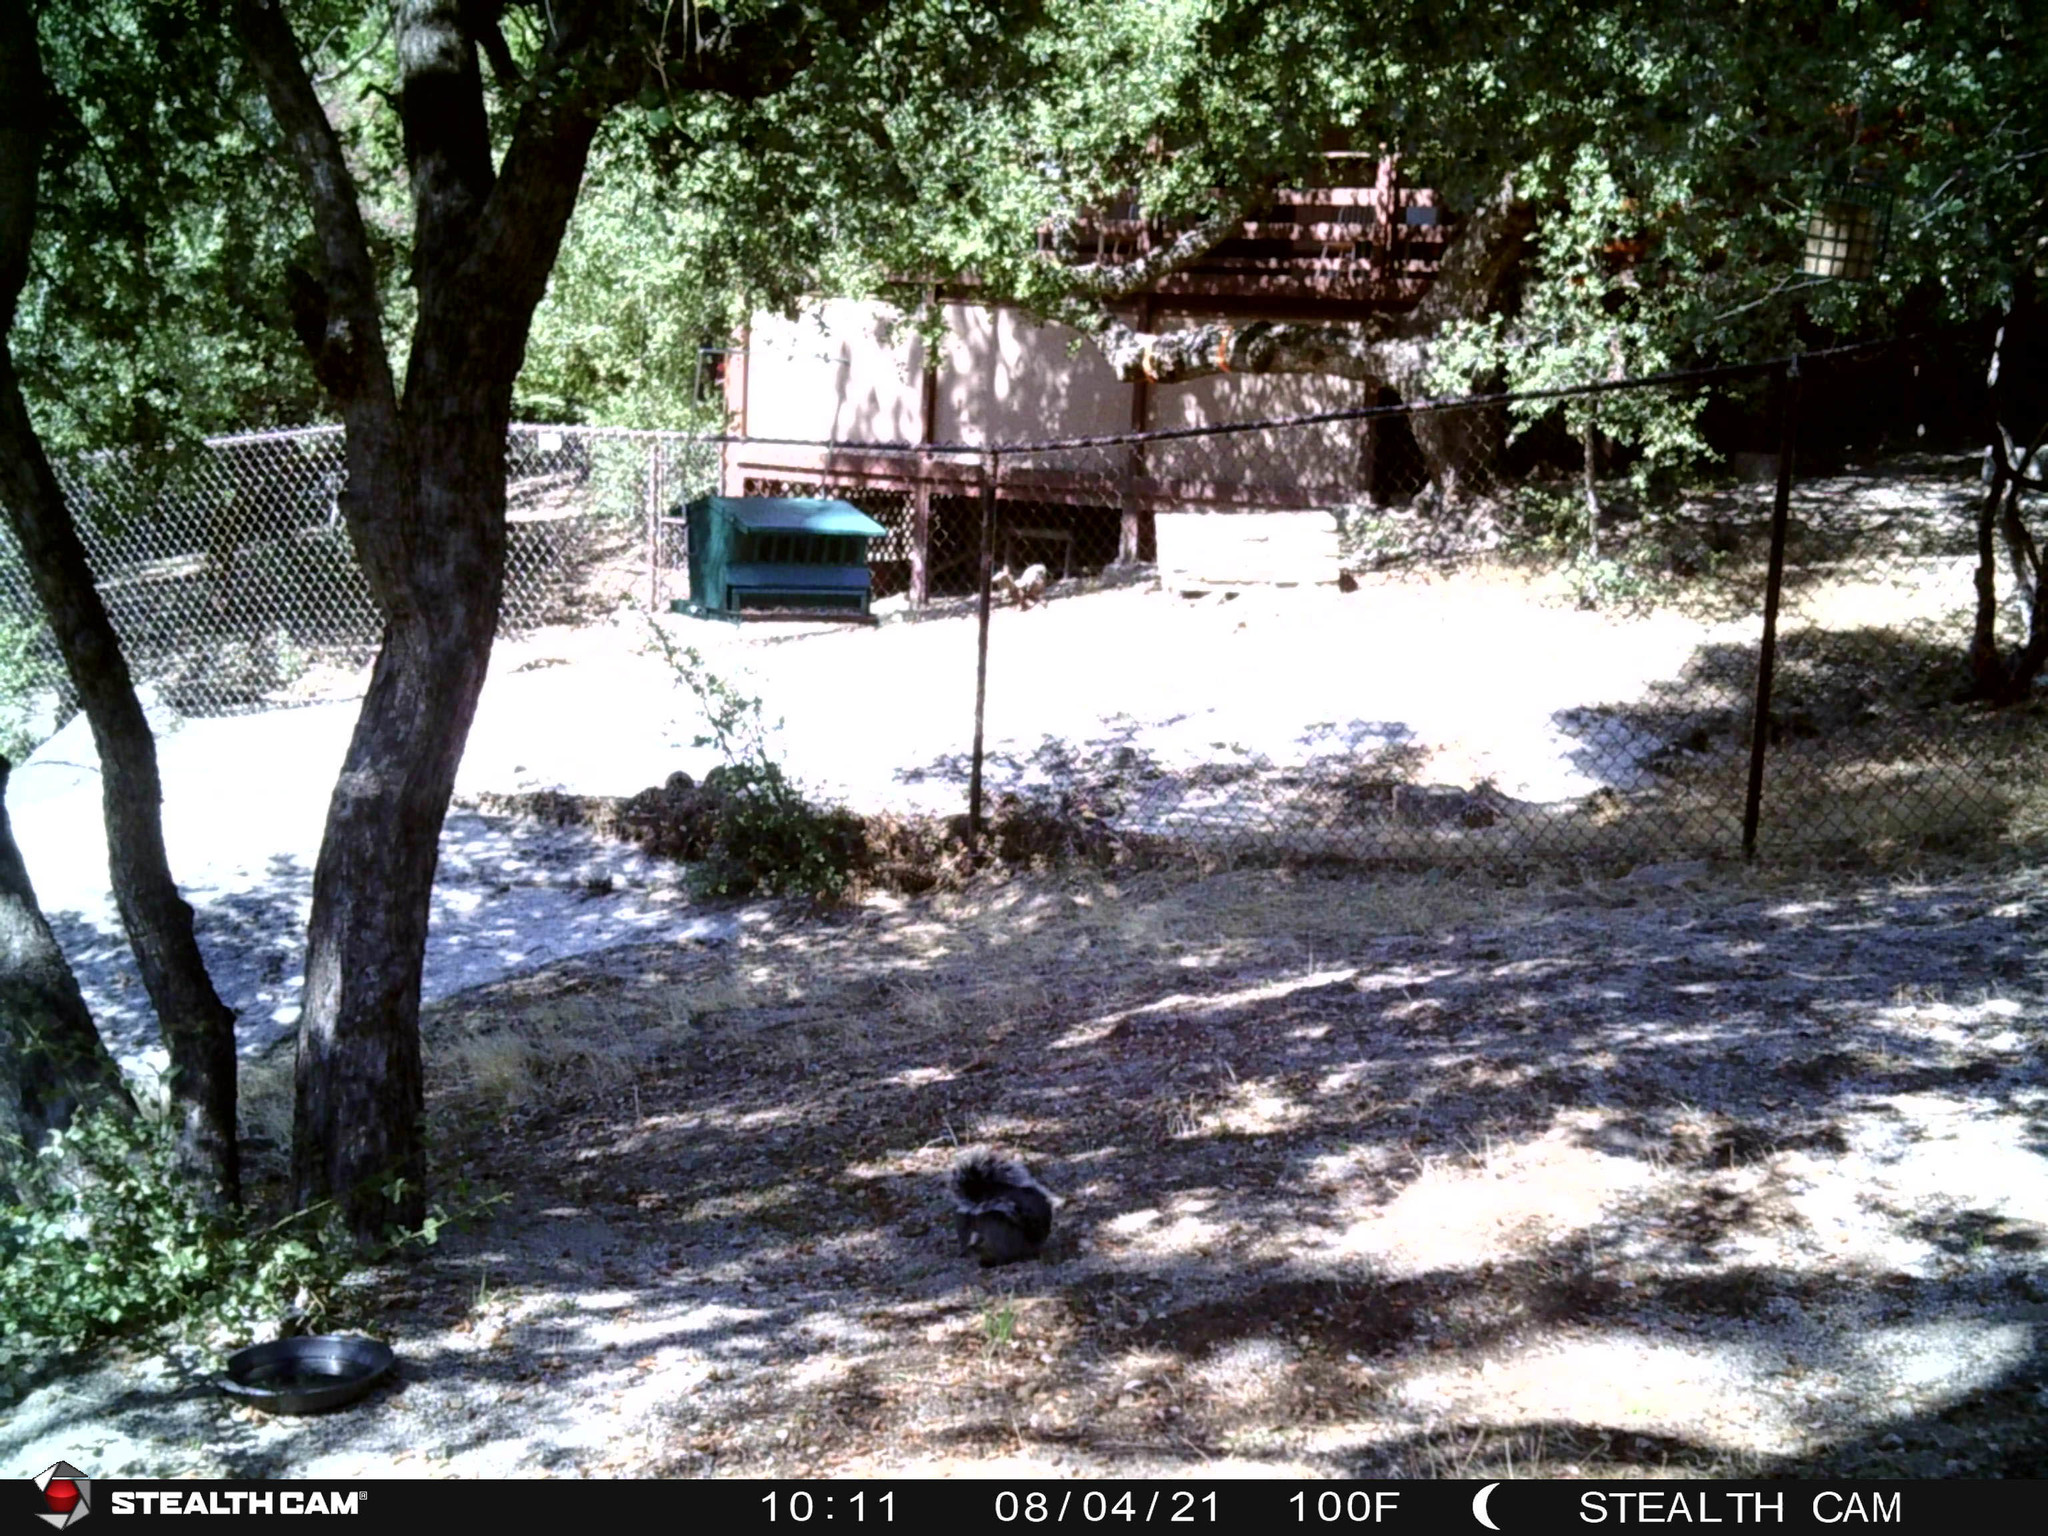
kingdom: Animalia
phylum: Chordata
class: Mammalia
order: Rodentia
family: Sciuridae
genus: Sciurus
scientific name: Sciurus griseus
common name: Western gray squirrel
